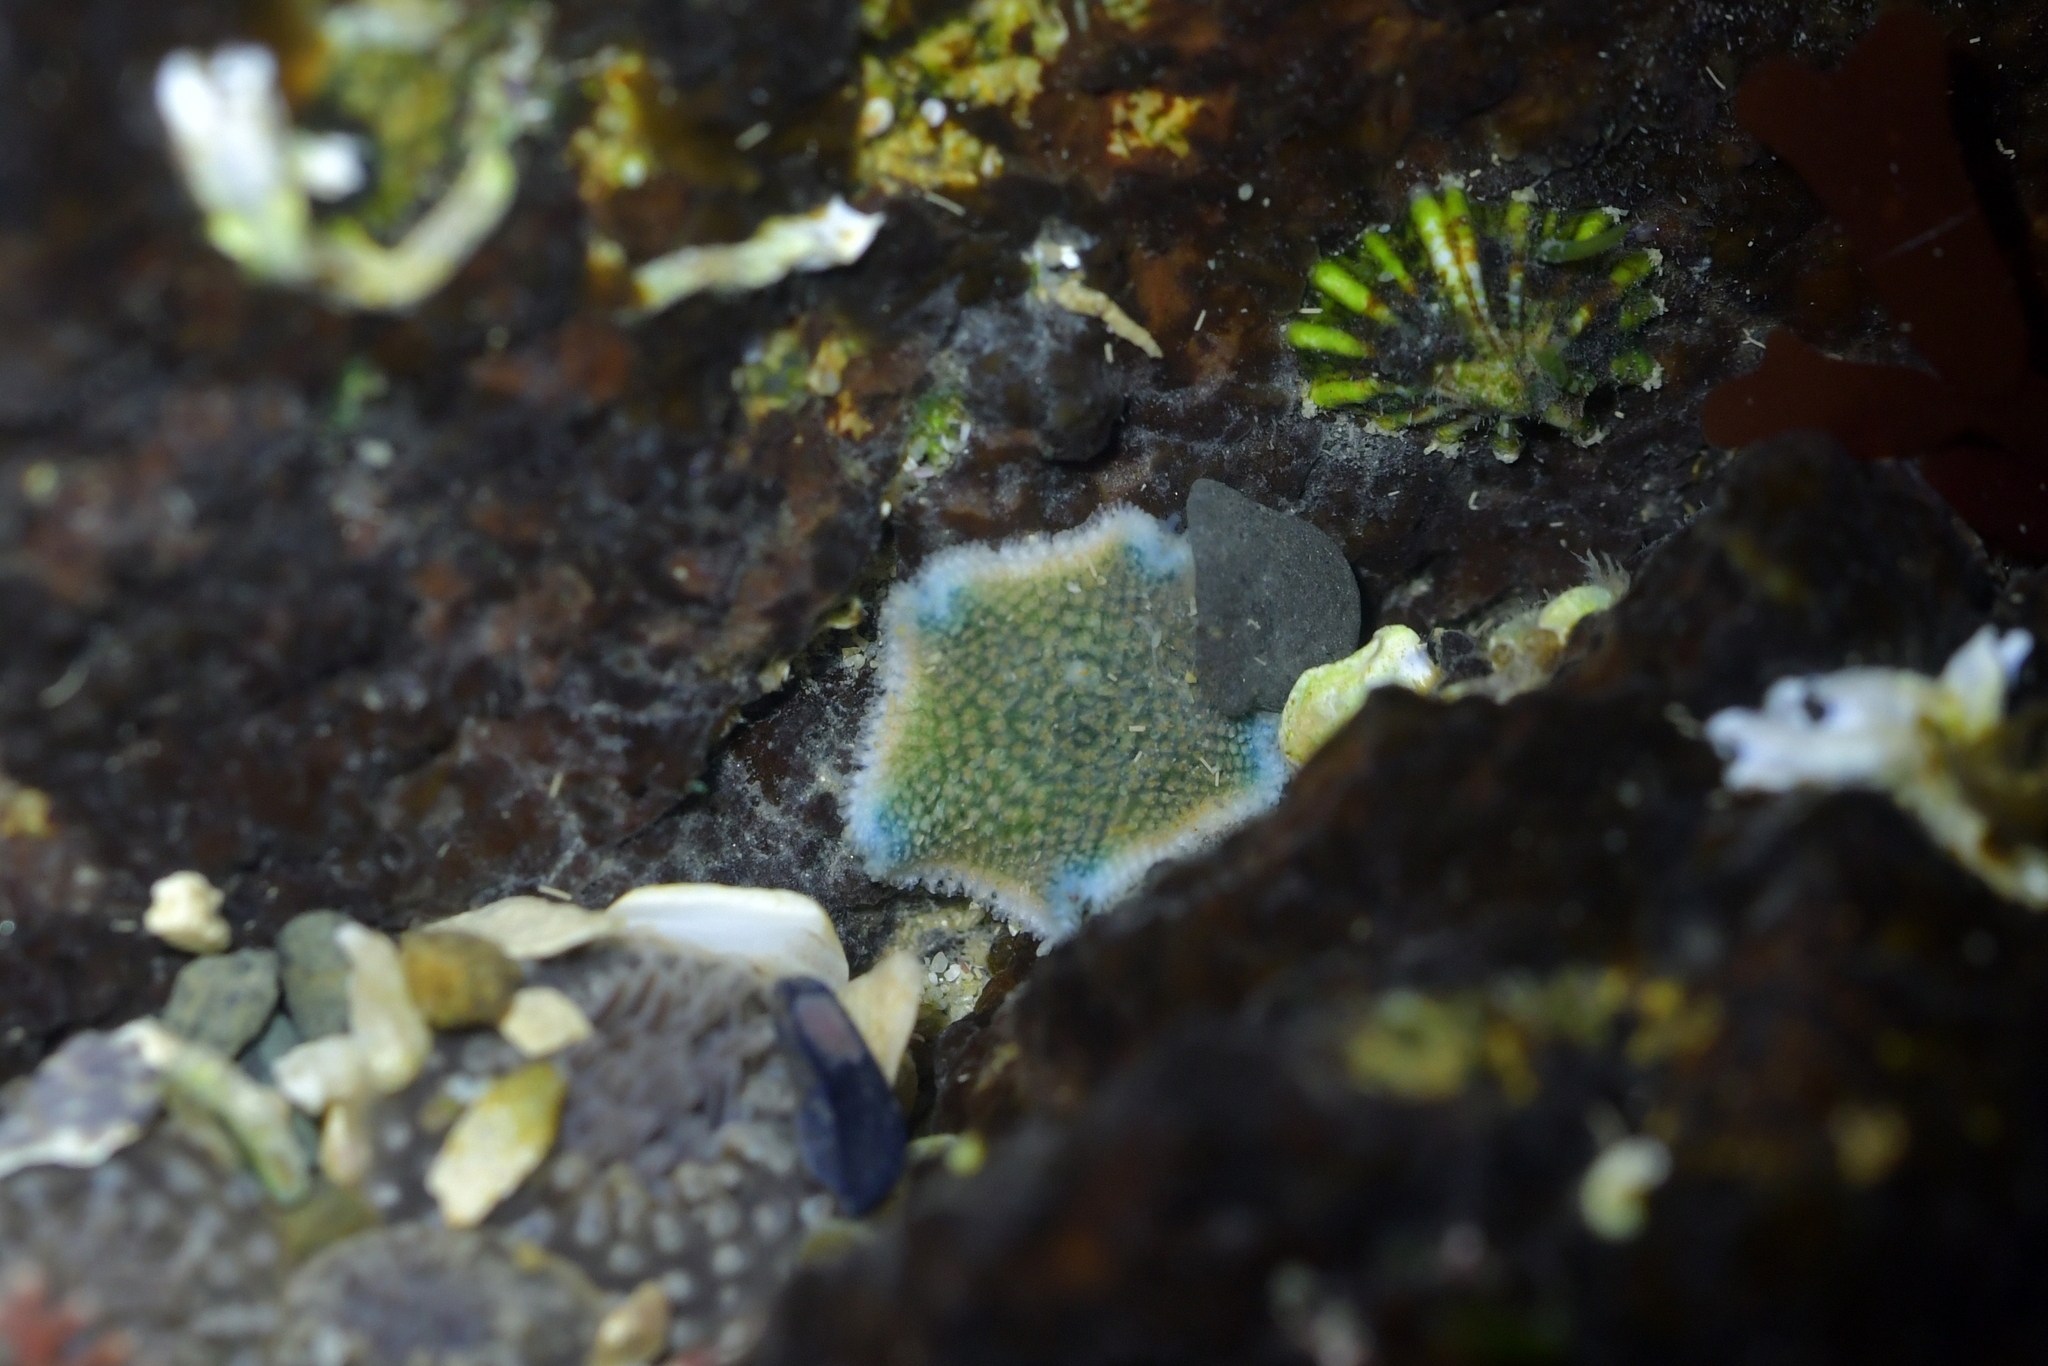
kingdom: Animalia
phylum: Echinodermata
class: Asteroidea
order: Valvatida
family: Asterinidae
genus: Patiriella
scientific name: Patiriella regularis
